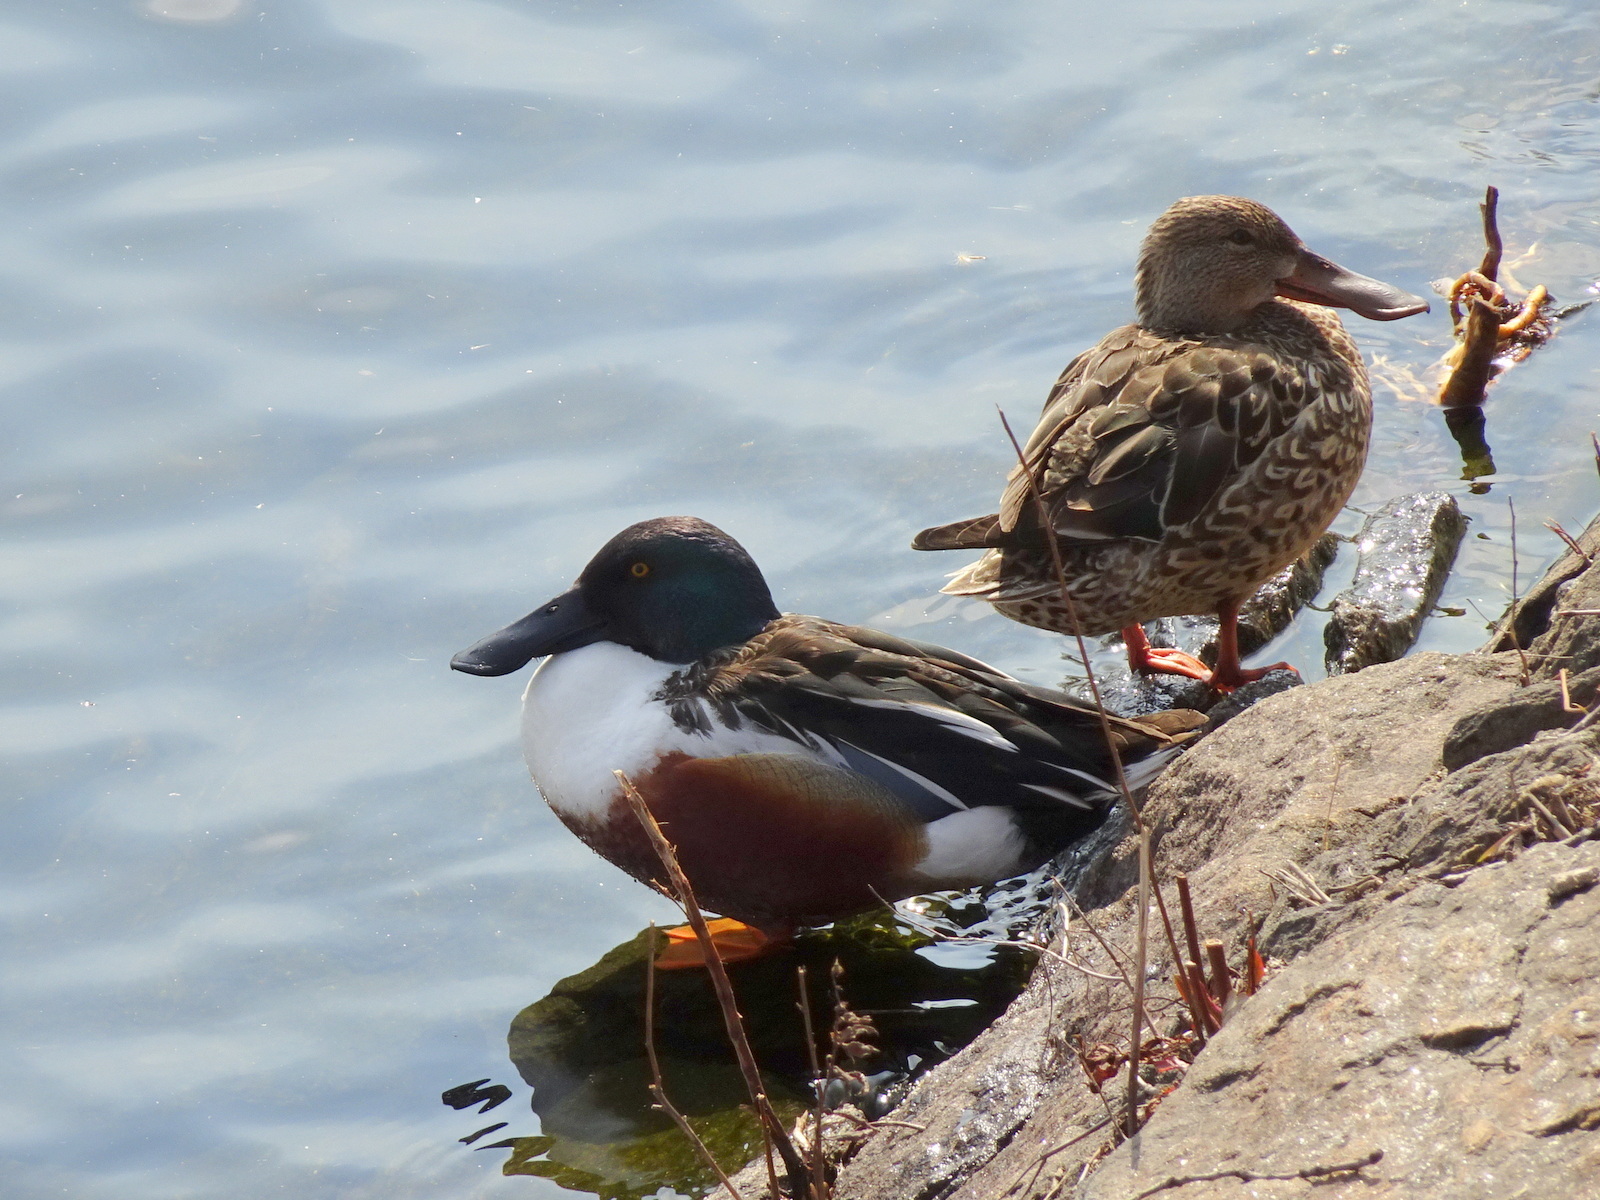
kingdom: Animalia
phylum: Chordata
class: Aves
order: Anseriformes
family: Anatidae
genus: Spatula
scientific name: Spatula clypeata
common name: Northern shoveler
